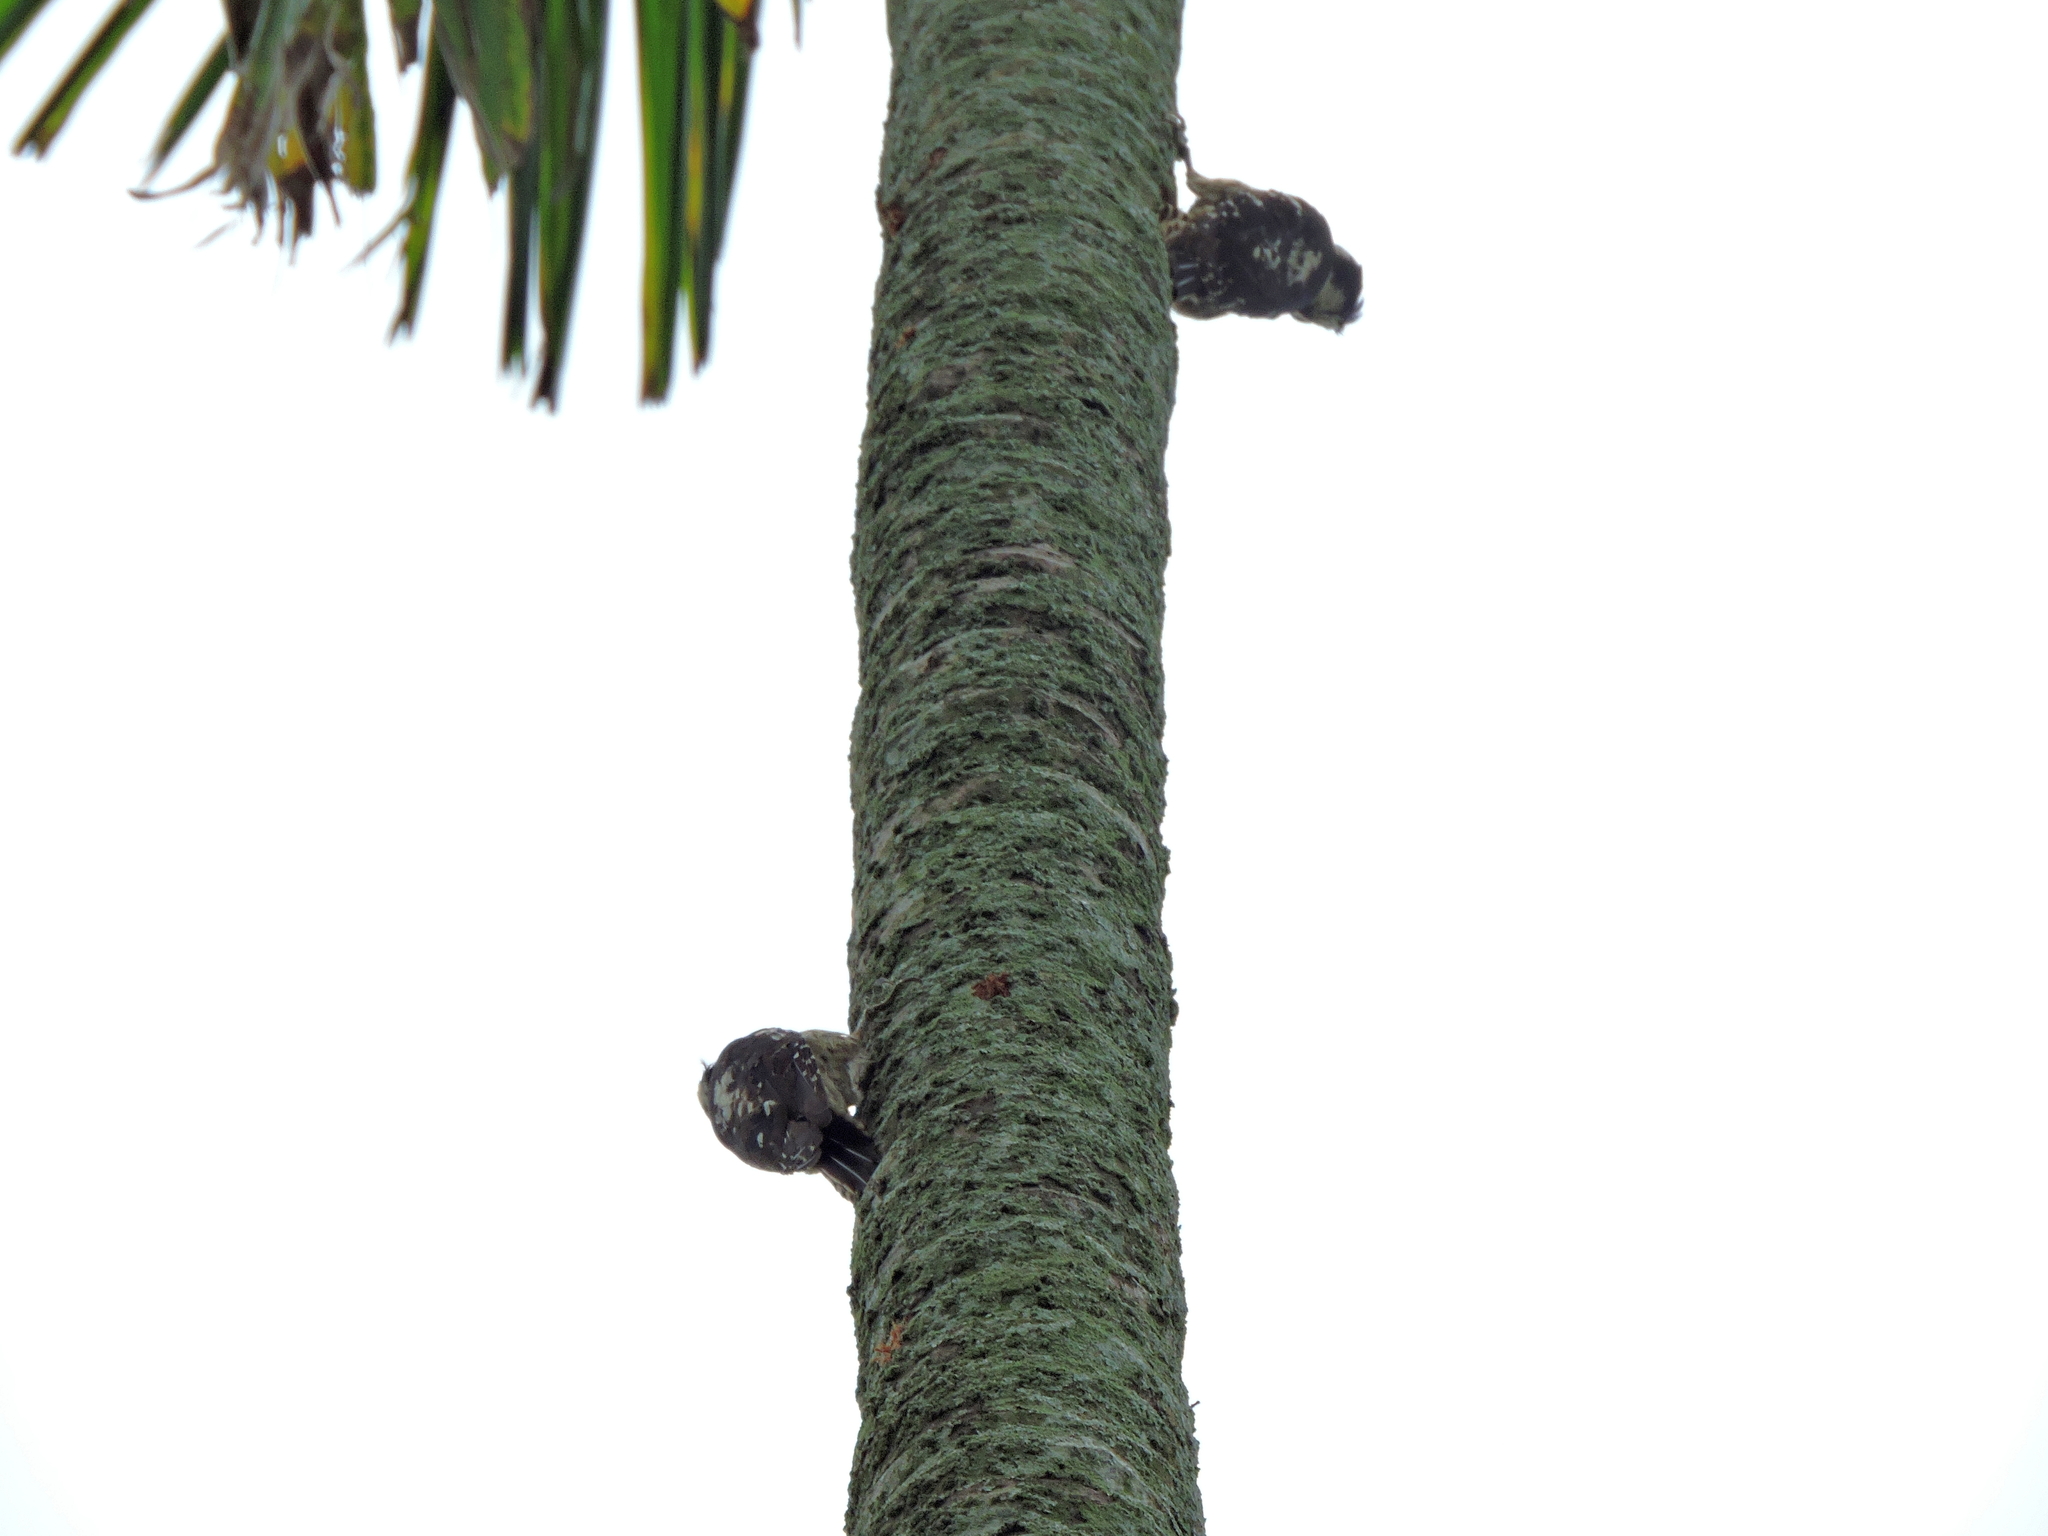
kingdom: Animalia
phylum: Chordata
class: Aves
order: Piciformes
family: Picidae
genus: Yungipicus
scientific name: Yungipicus canicapillus
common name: Grey-capped pygmy woodpecker
